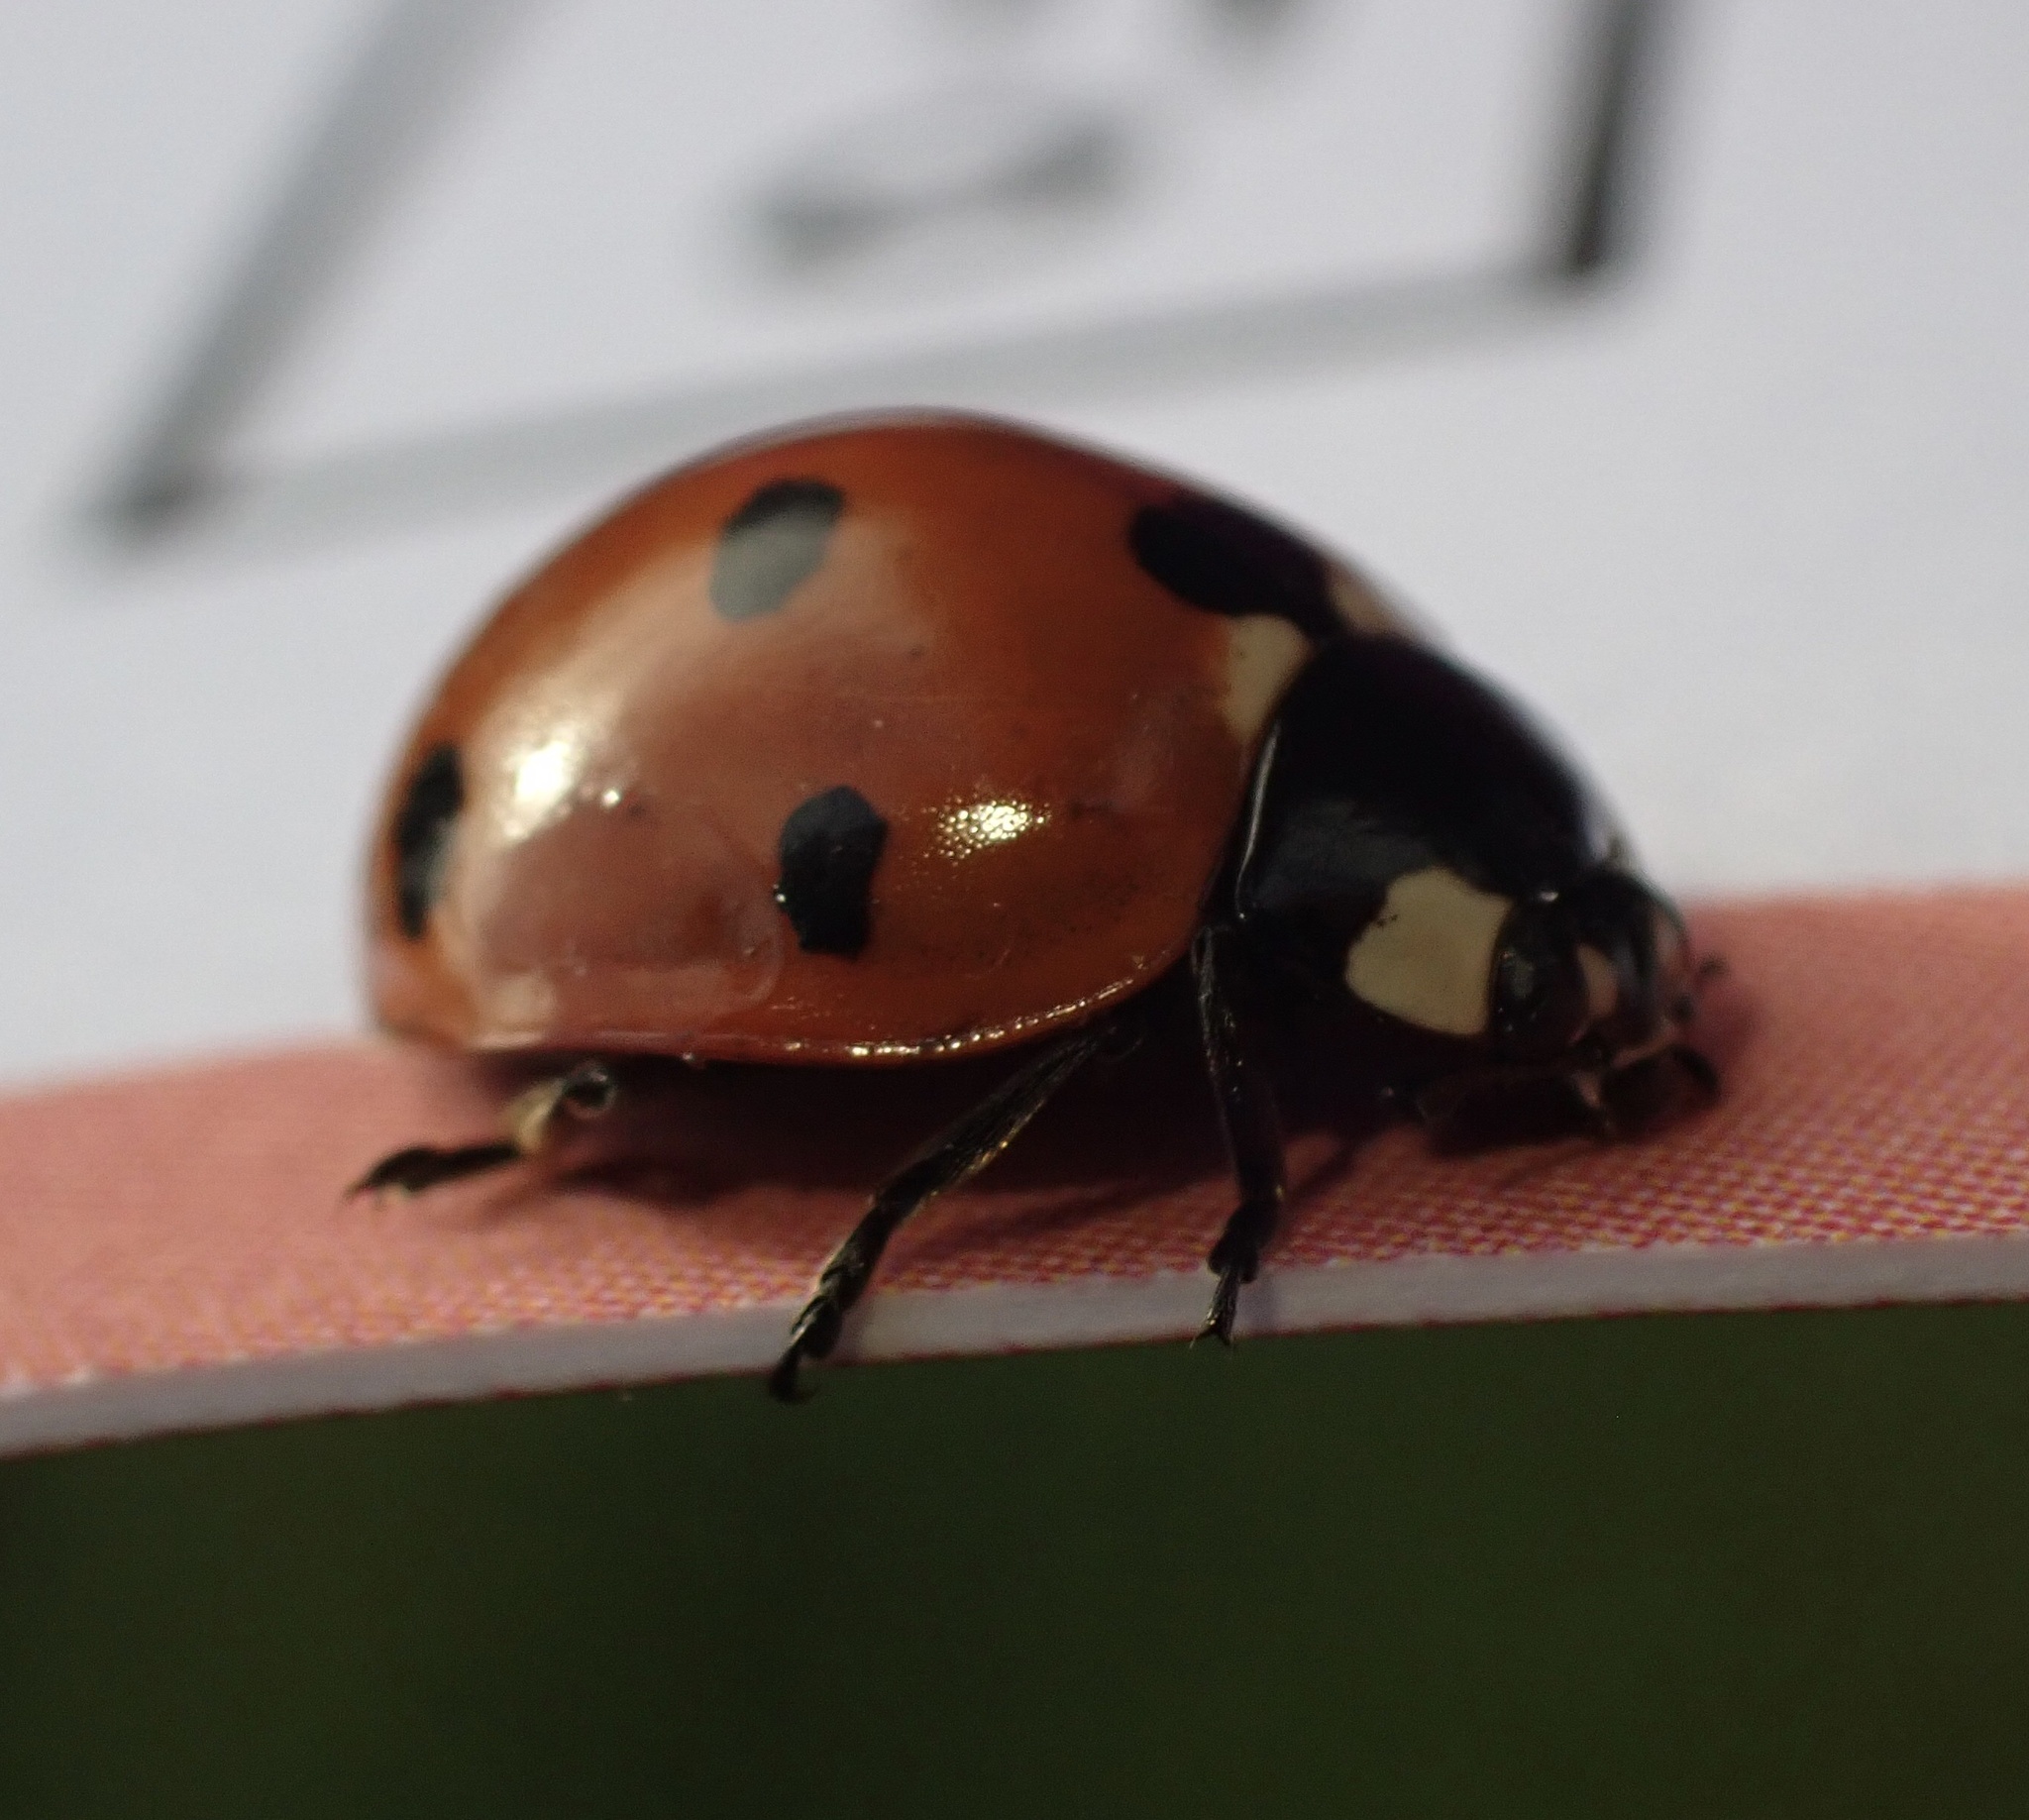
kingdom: Animalia
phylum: Arthropoda
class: Insecta
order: Coleoptera
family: Coccinellidae
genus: Coccinella
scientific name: Coccinella septempunctata
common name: Sevenspotted lady beetle
